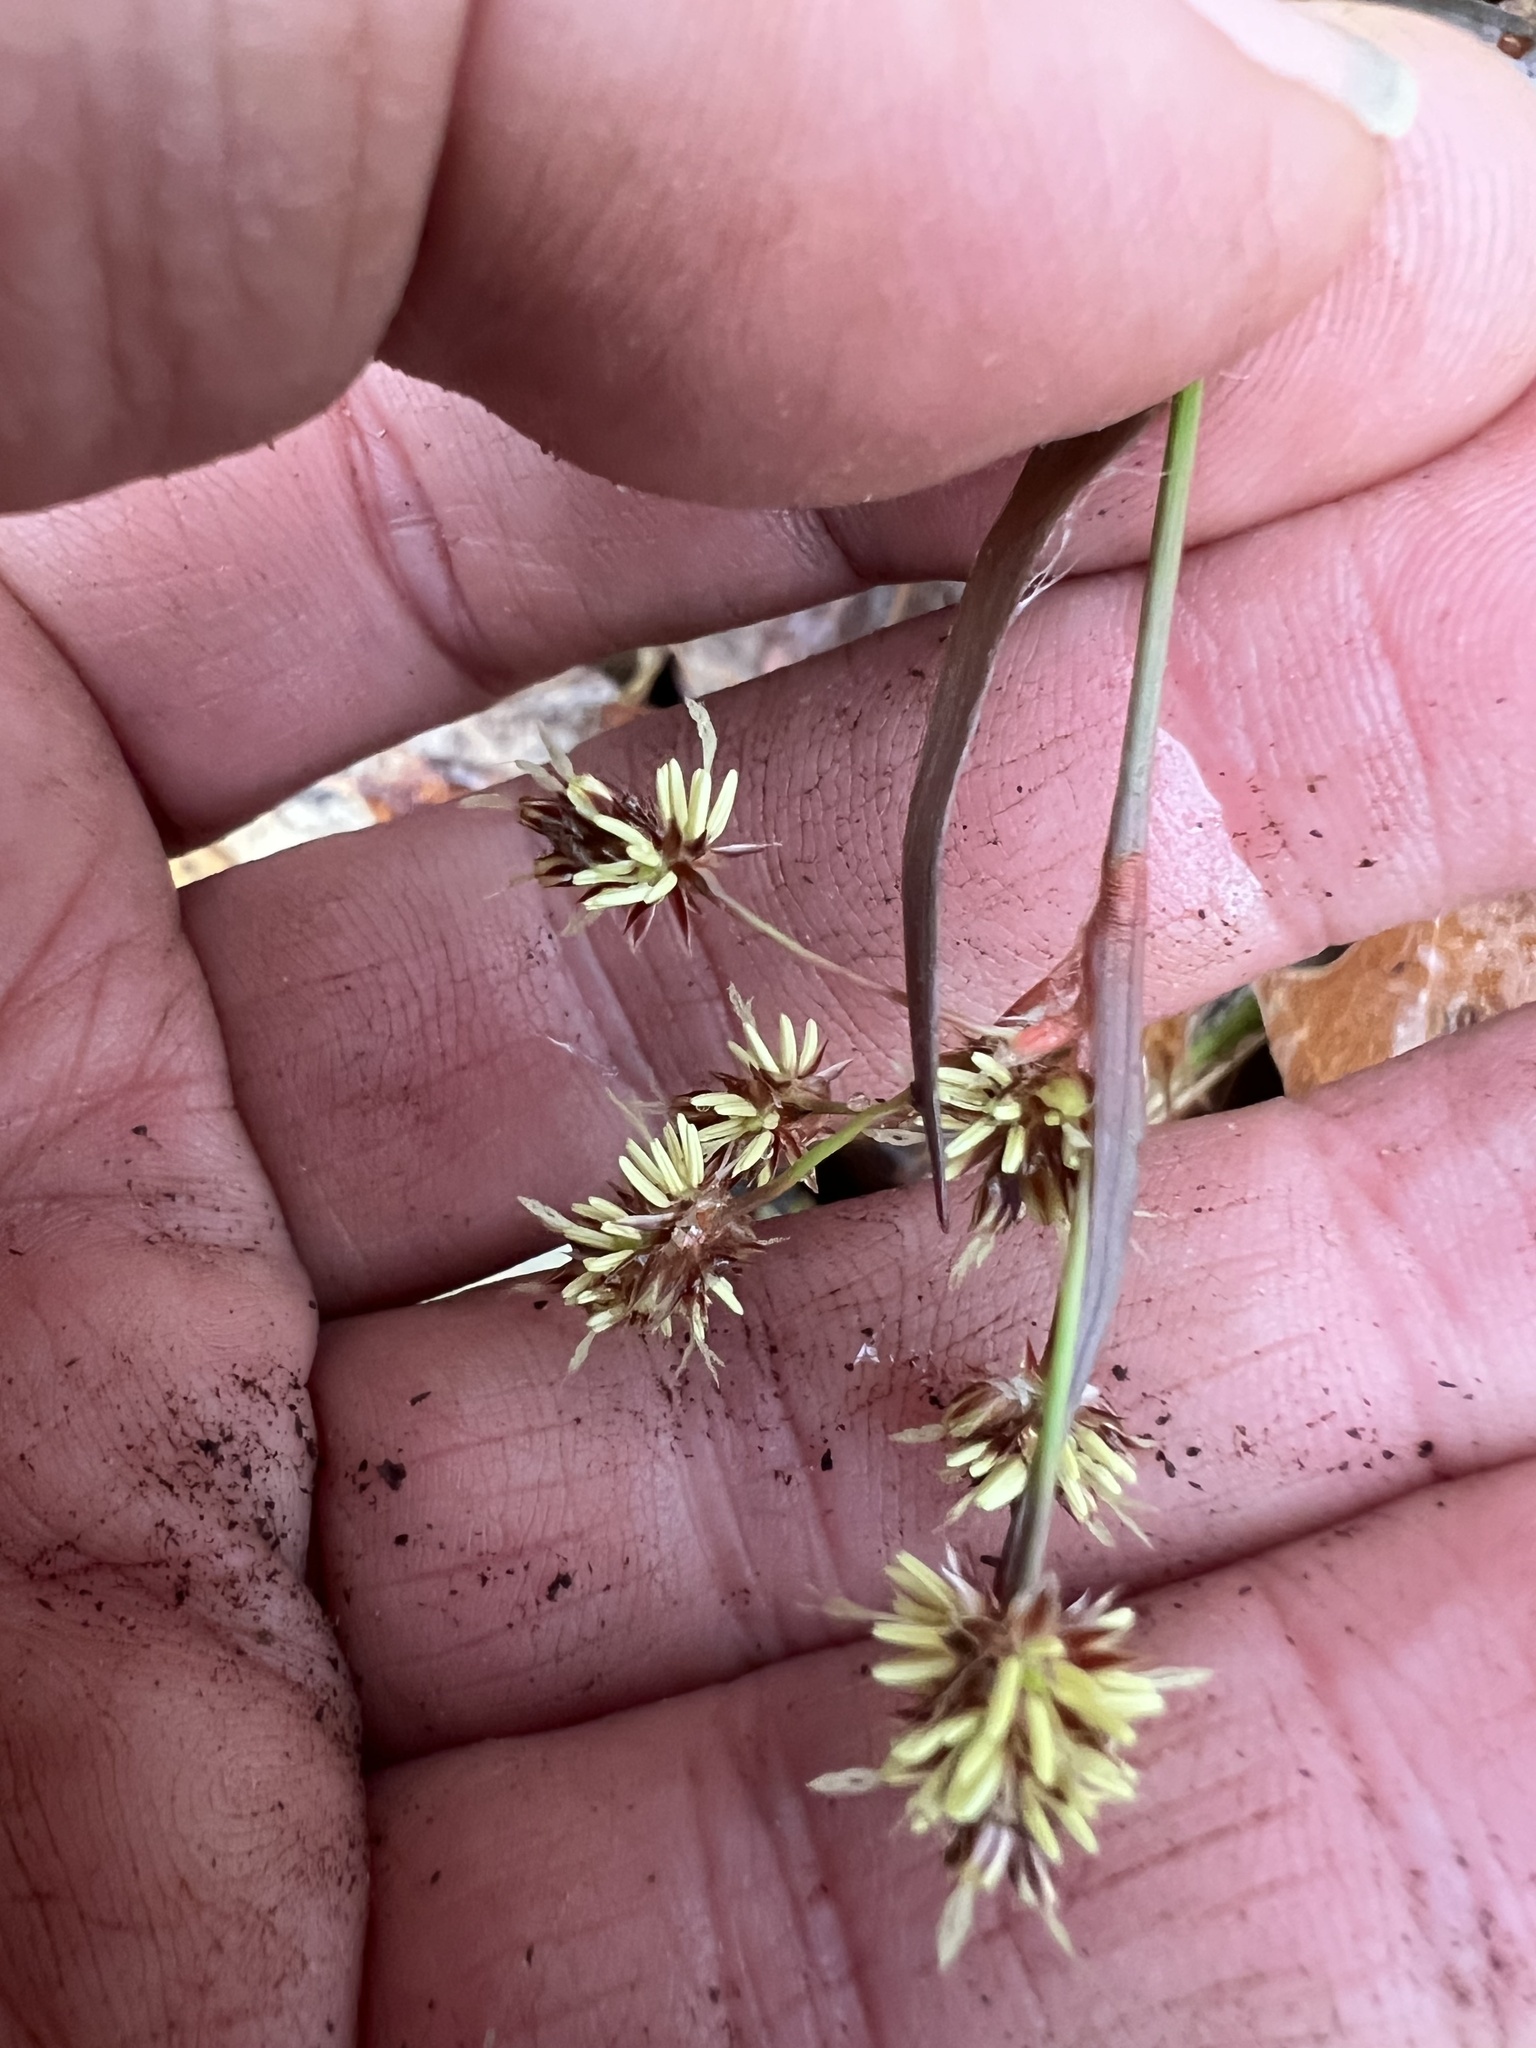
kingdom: Plantae
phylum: Tracheophyta
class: Liliopsida
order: Poales
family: Juncaceae
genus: Luzula
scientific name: Luzula echinata
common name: Hedgehog woodrush
